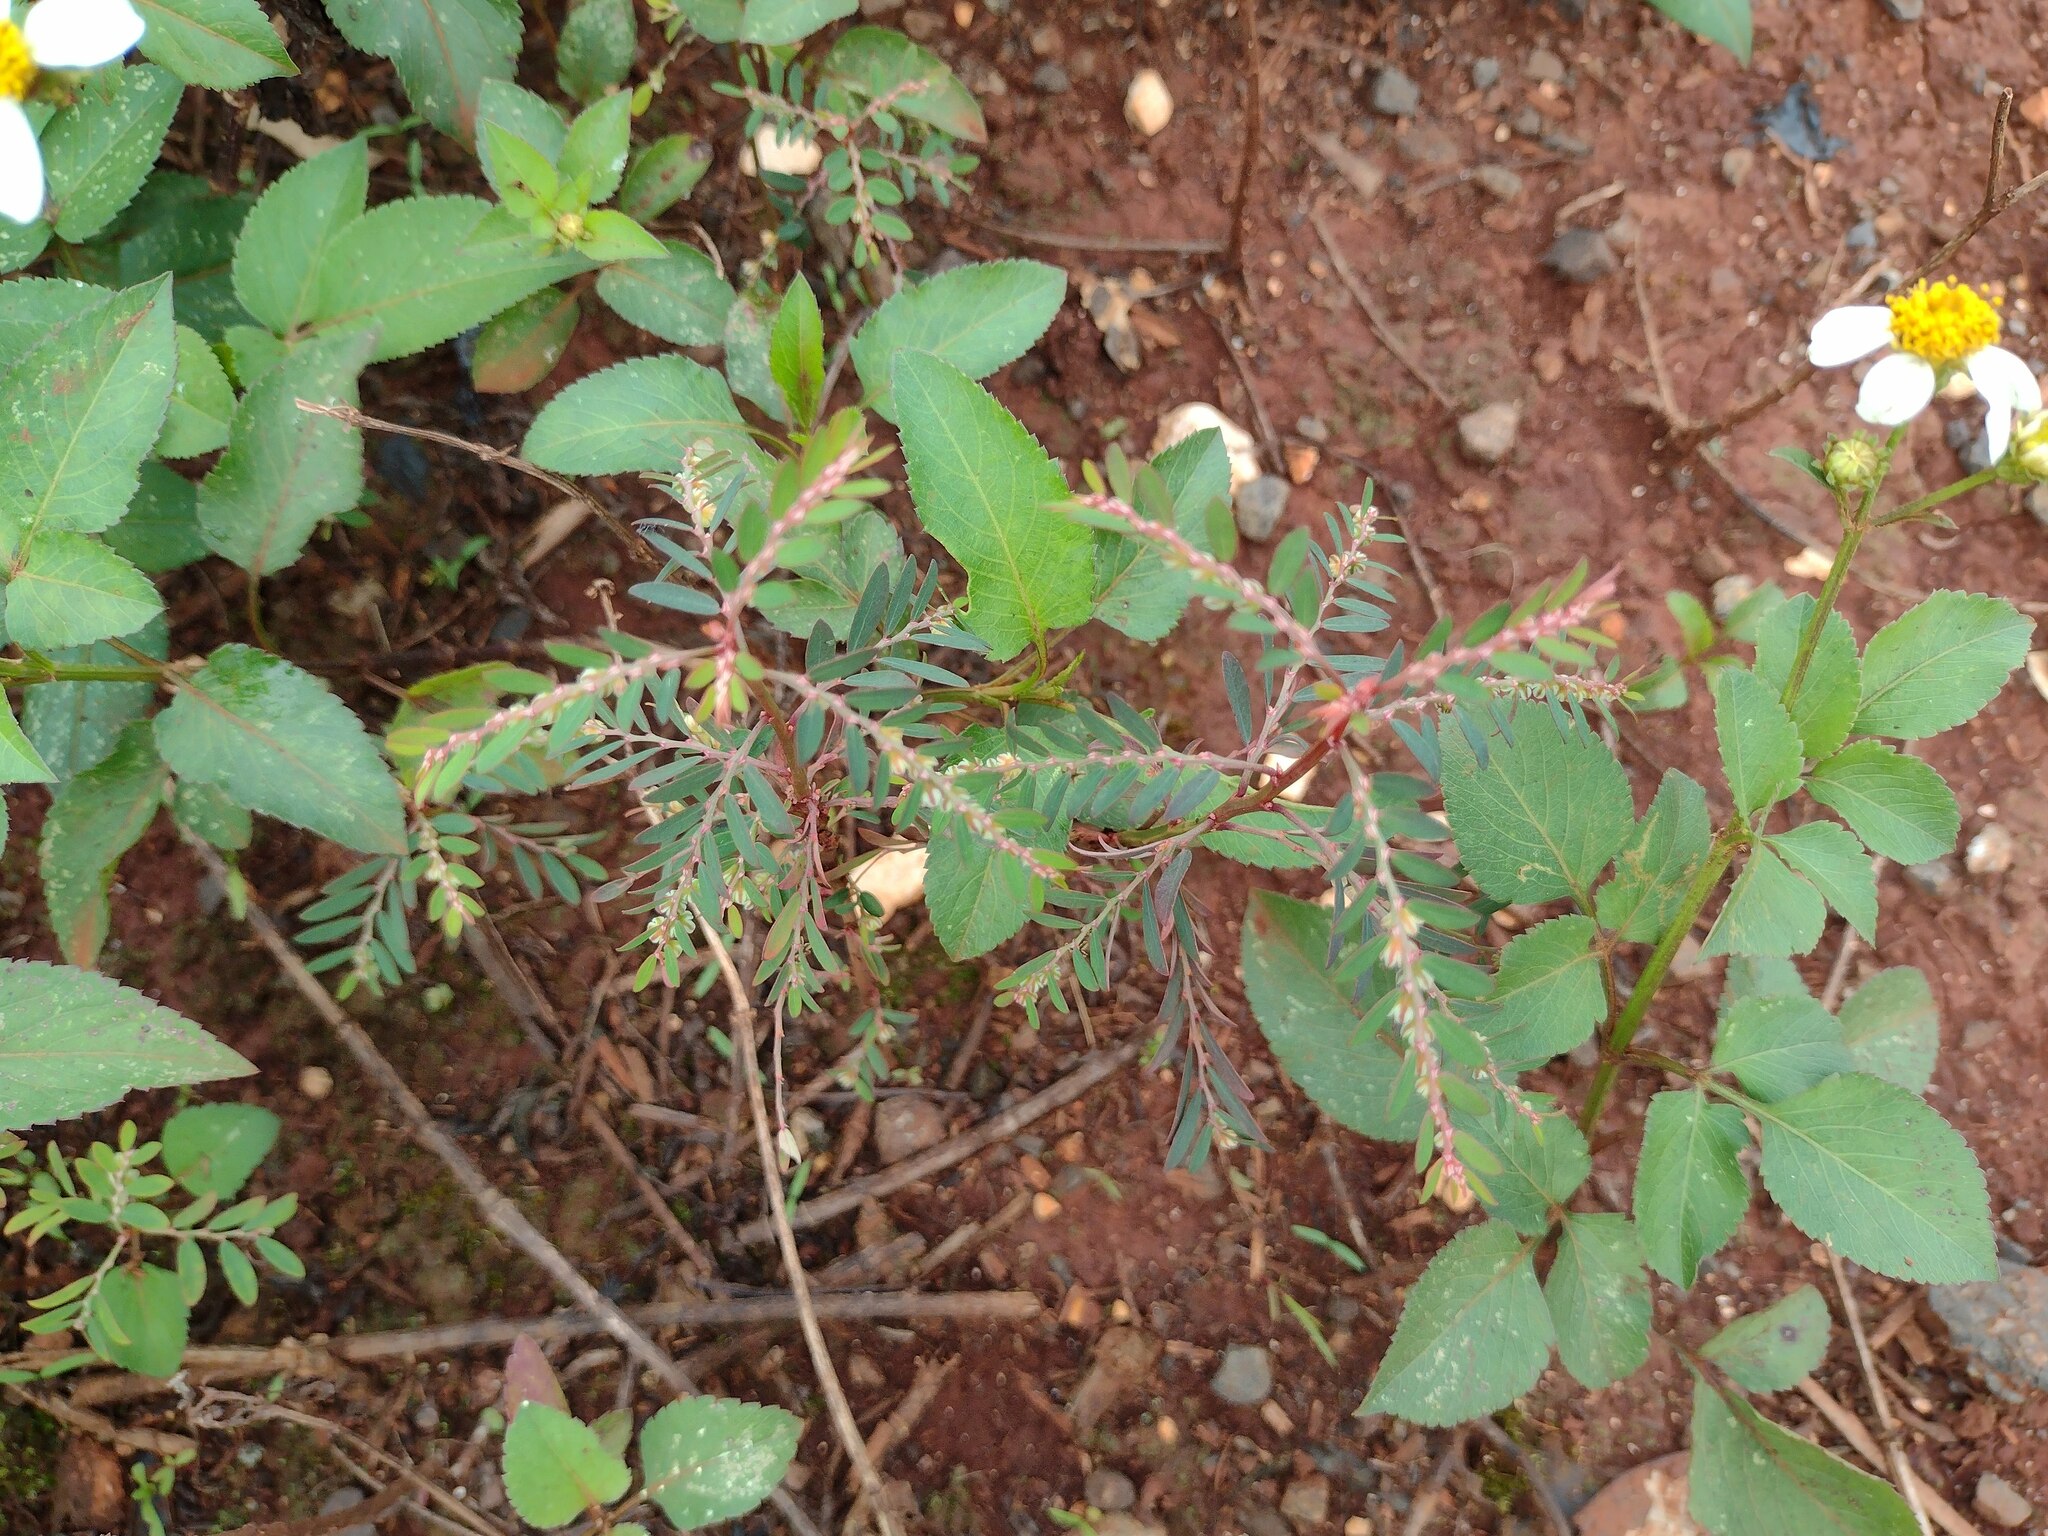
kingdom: Plantae
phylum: Tracheophyta
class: Magnoliopsida
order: Malpighiales
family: Phyllanthaceae
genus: Phyllanthus
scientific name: Phyllanthus debilis
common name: Niruri
